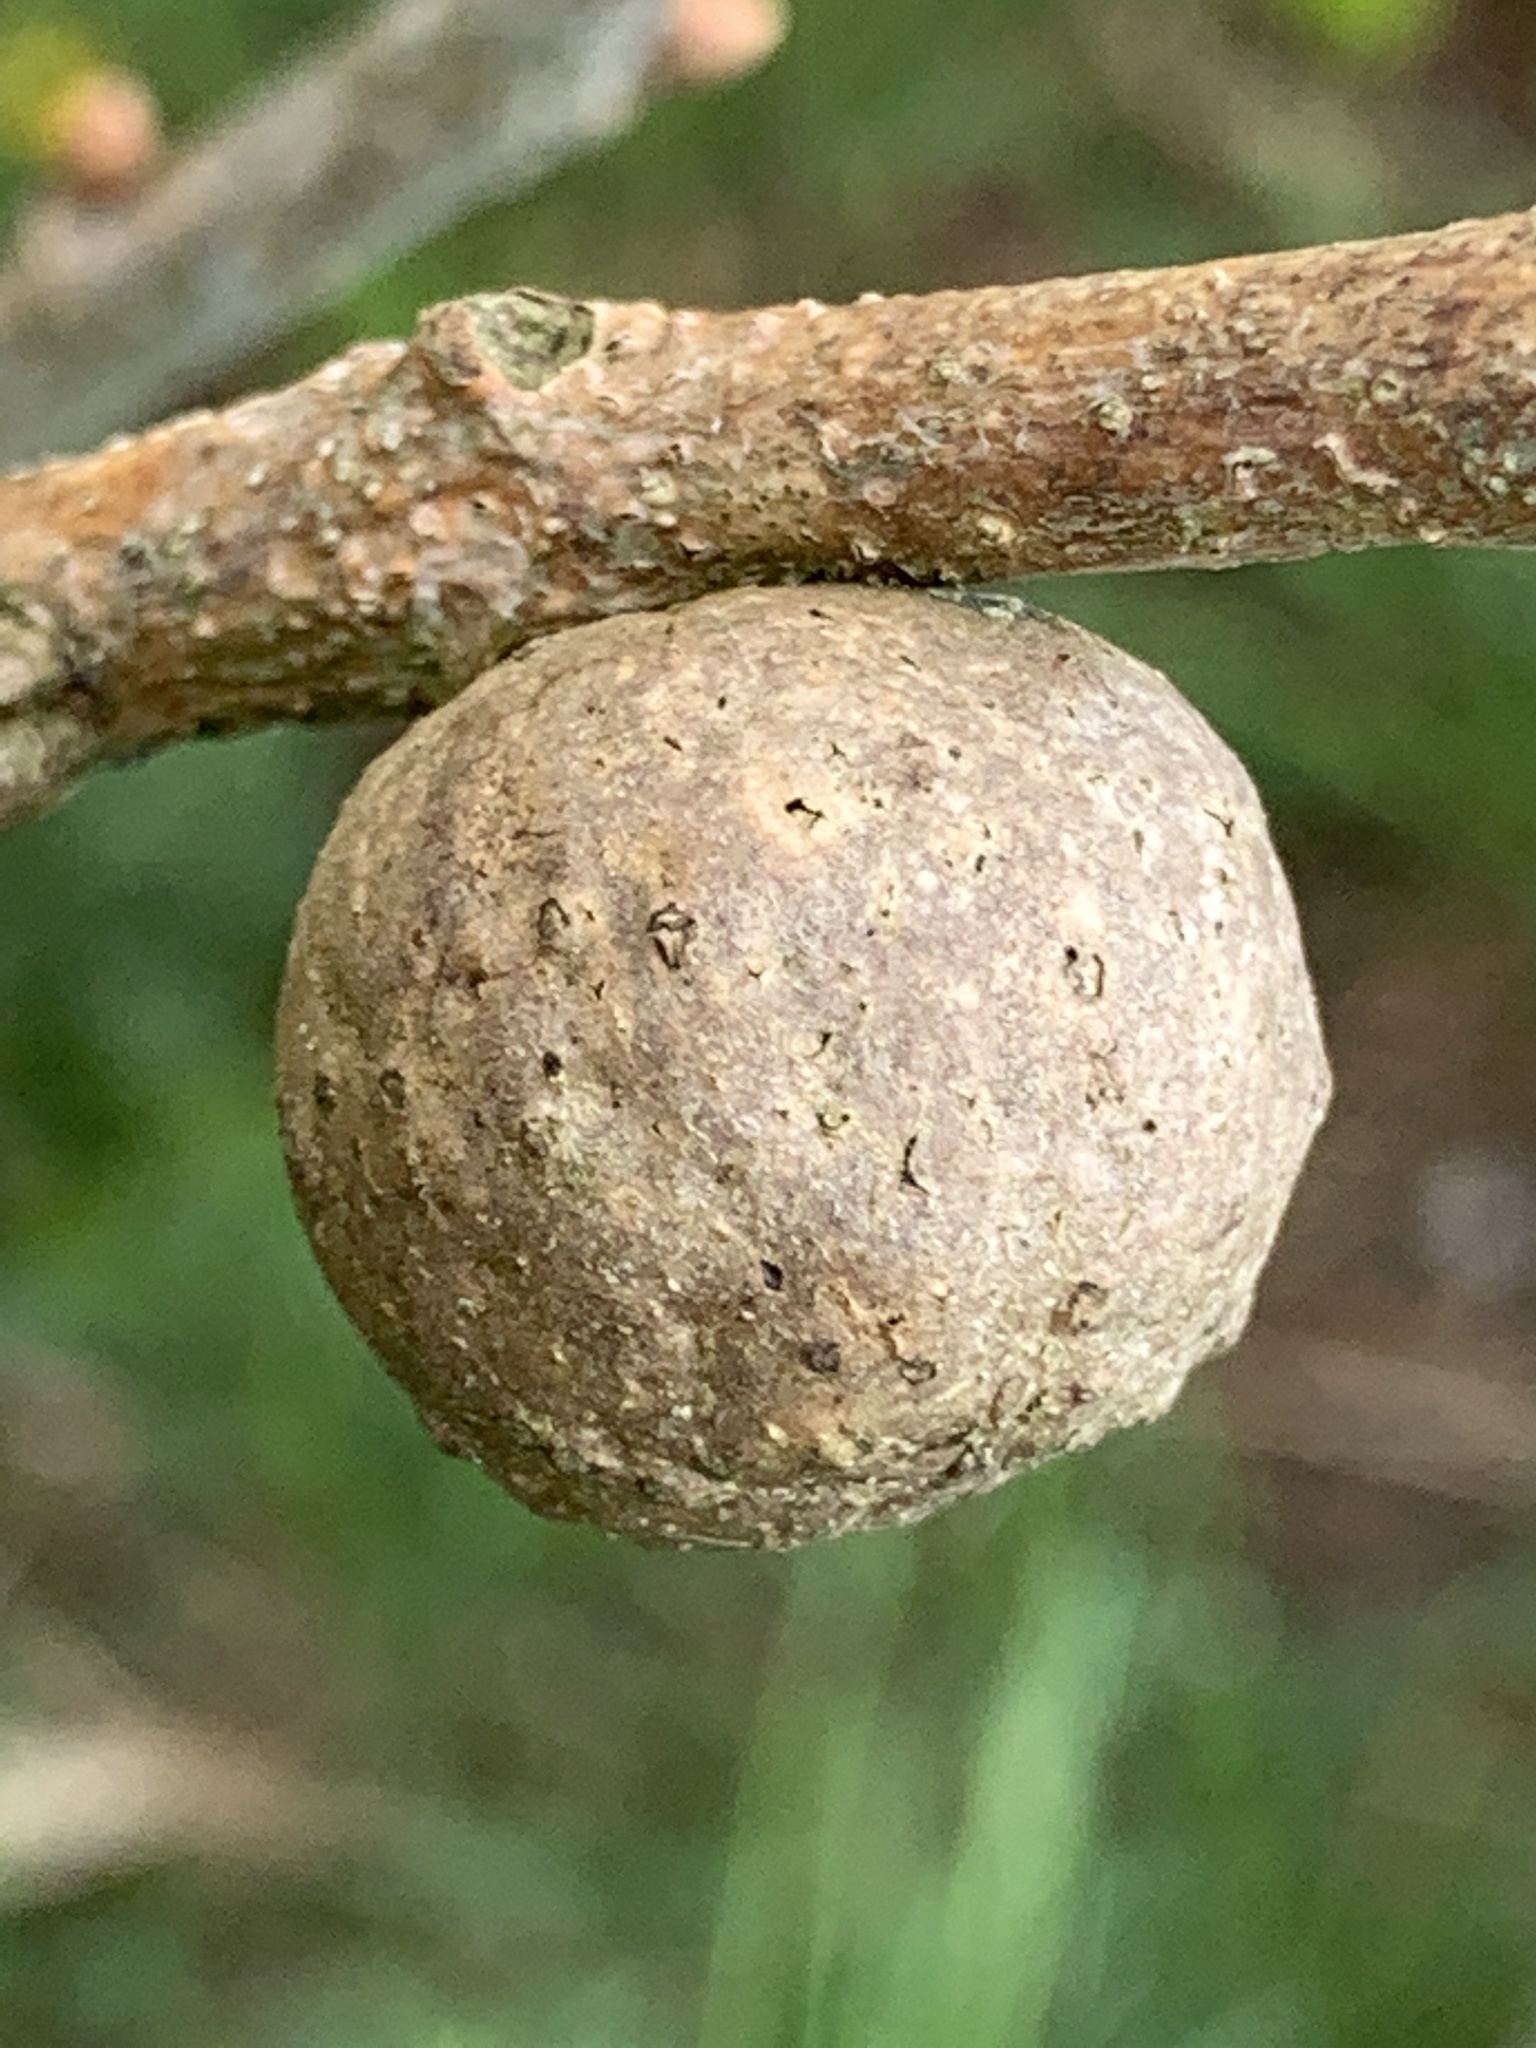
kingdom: Animalia
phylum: Arthropoda
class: Insecta
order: Hymenoptera
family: Cynipidae
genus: Andricus
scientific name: Andricus kollari
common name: Marble gall
